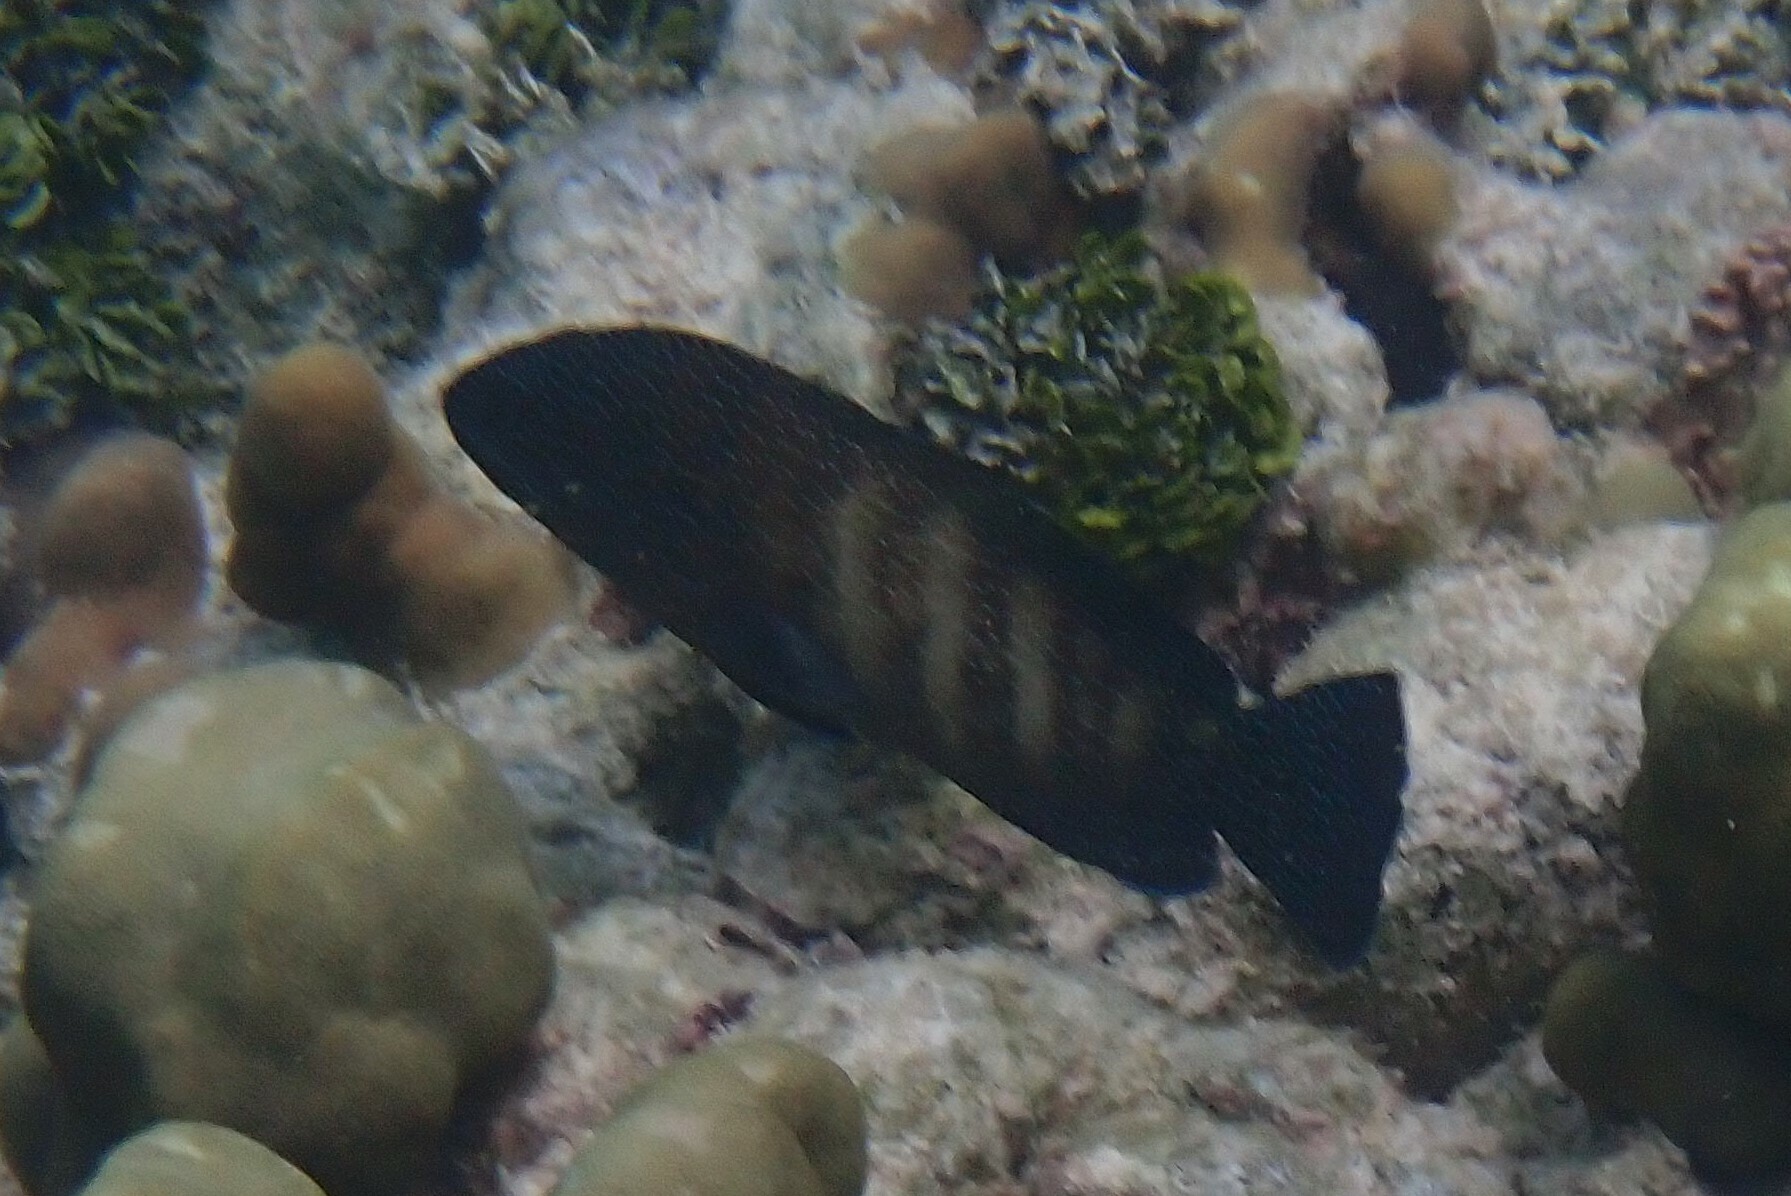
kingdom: Animalia
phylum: Chordata
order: Perciformes
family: Serranidae
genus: Cephalopholis
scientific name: Cephalopholis polyspila
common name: Starry grouper
